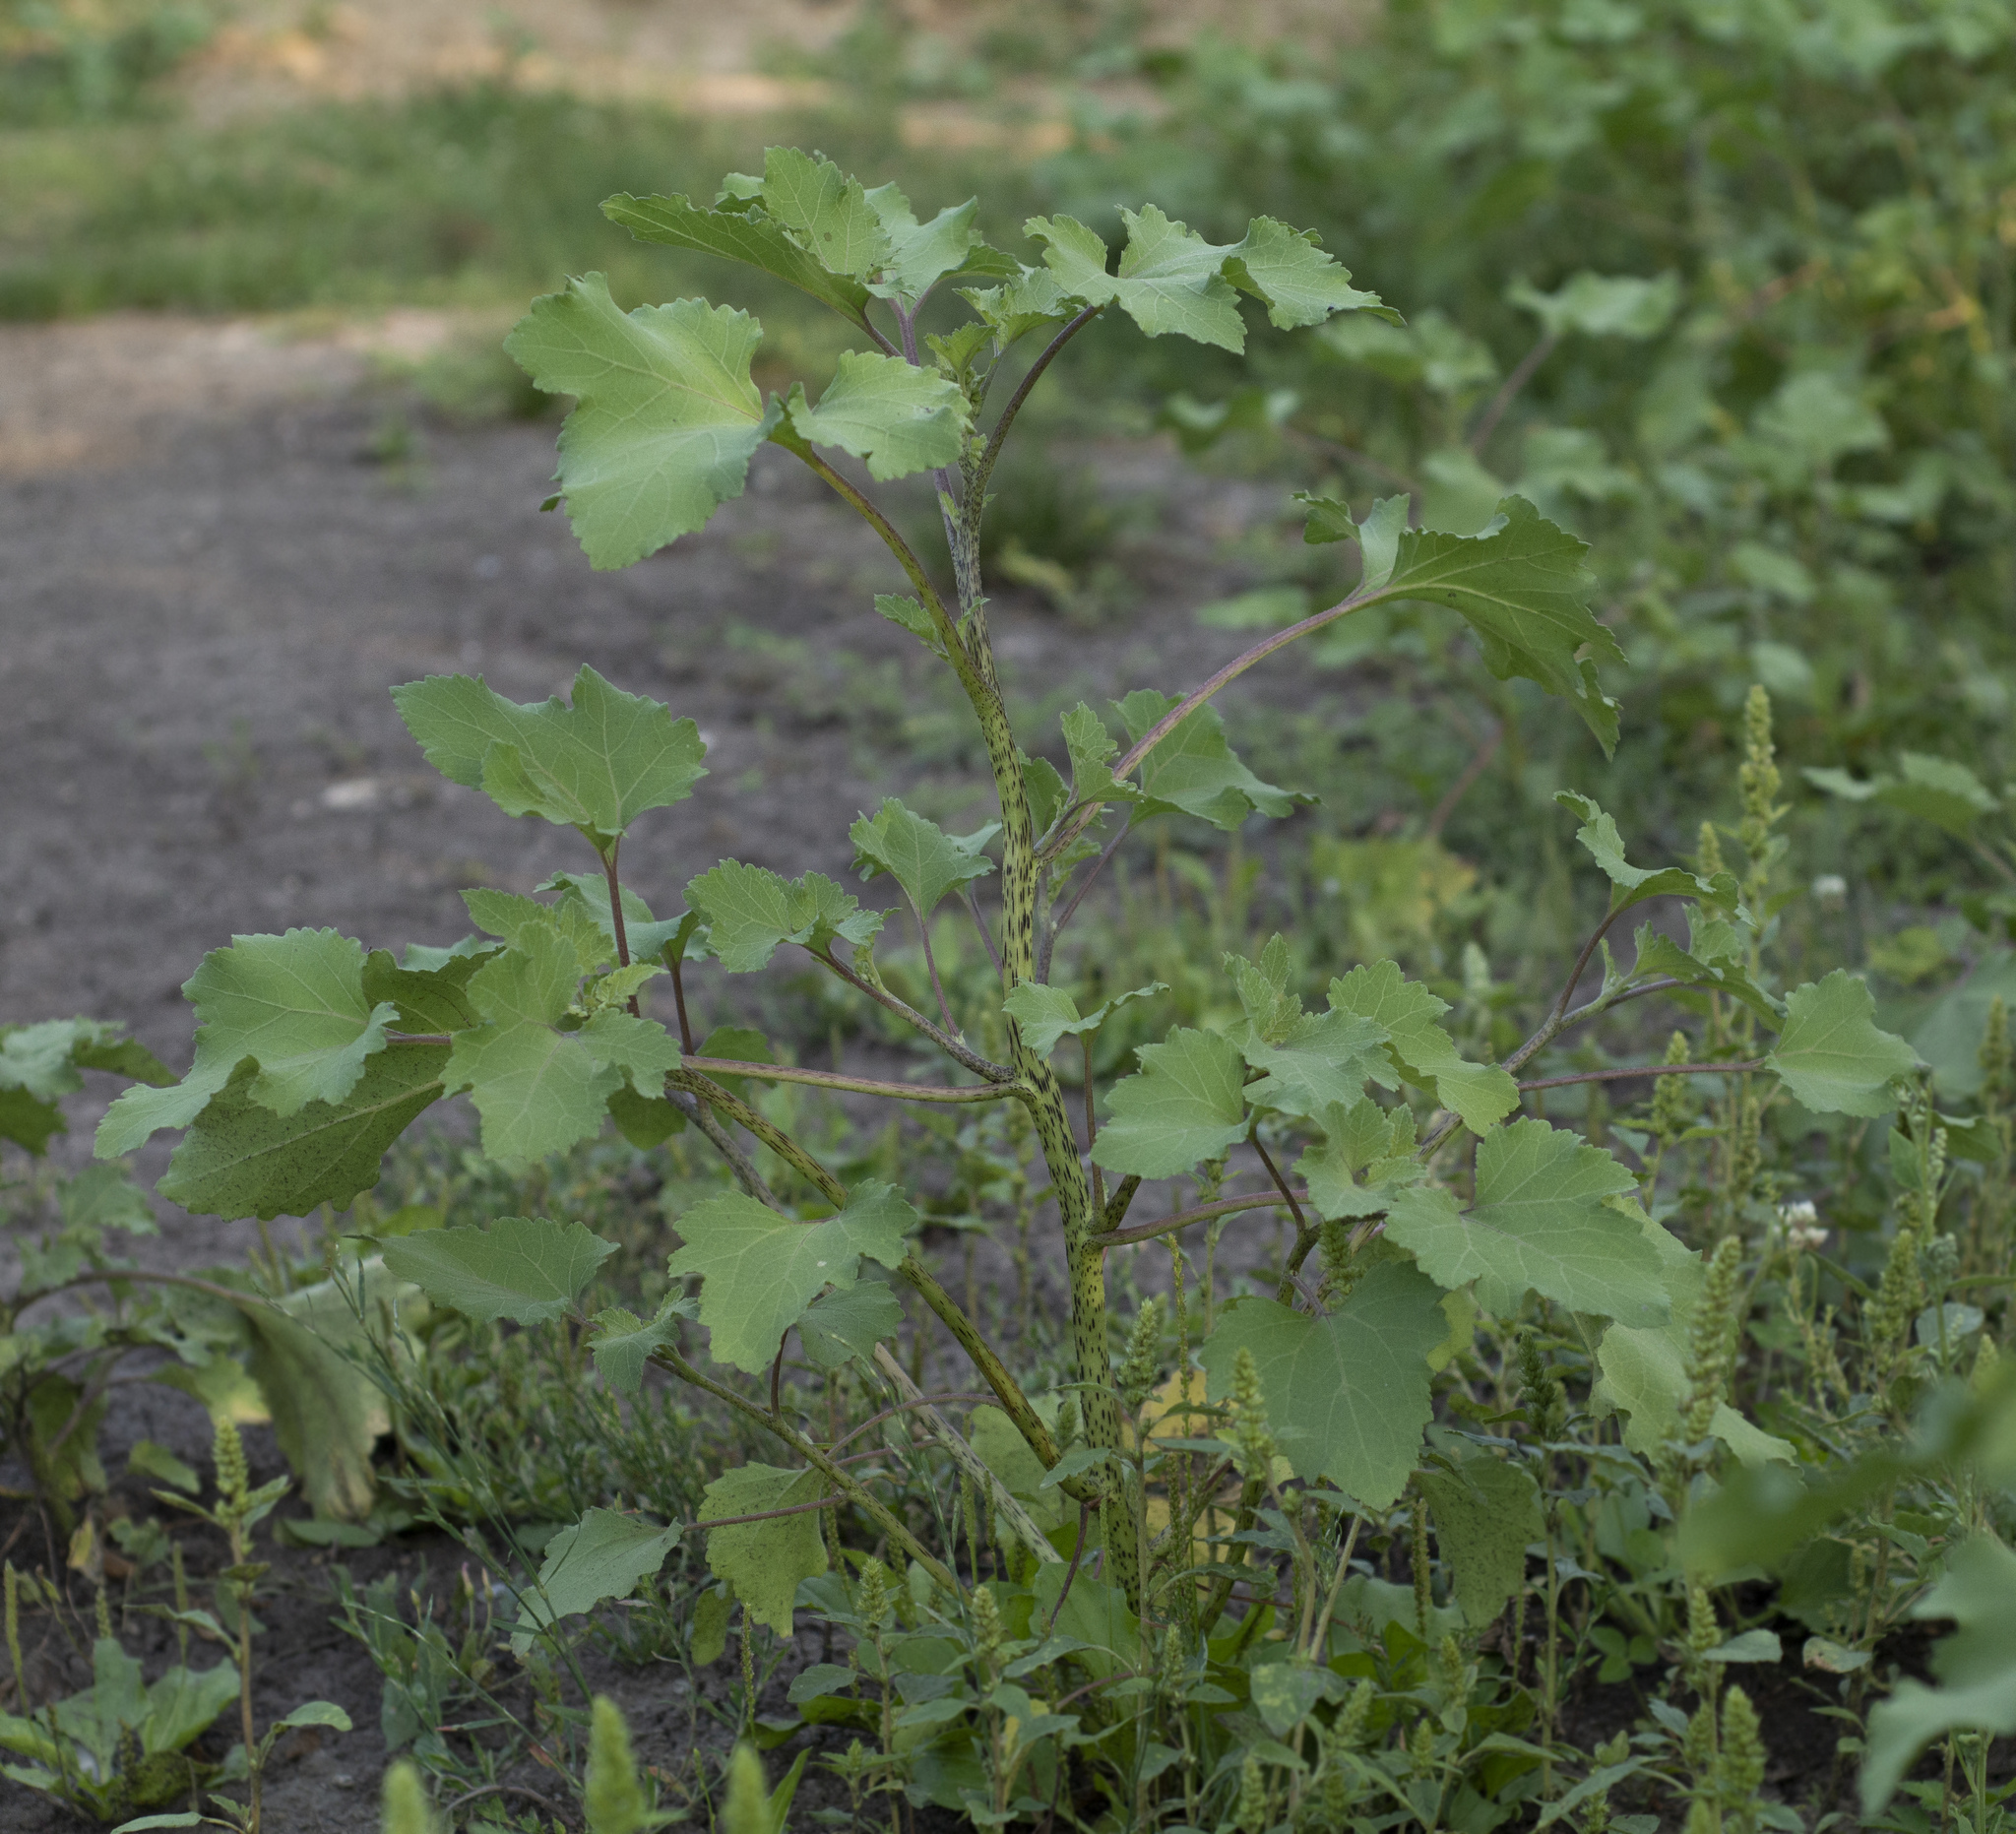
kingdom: Plantae
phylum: Tracheophyta
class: Magnoliopsida
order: Asterales
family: Asteraceae
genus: Xanthium
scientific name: Xanthium orientale
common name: Californian burr
